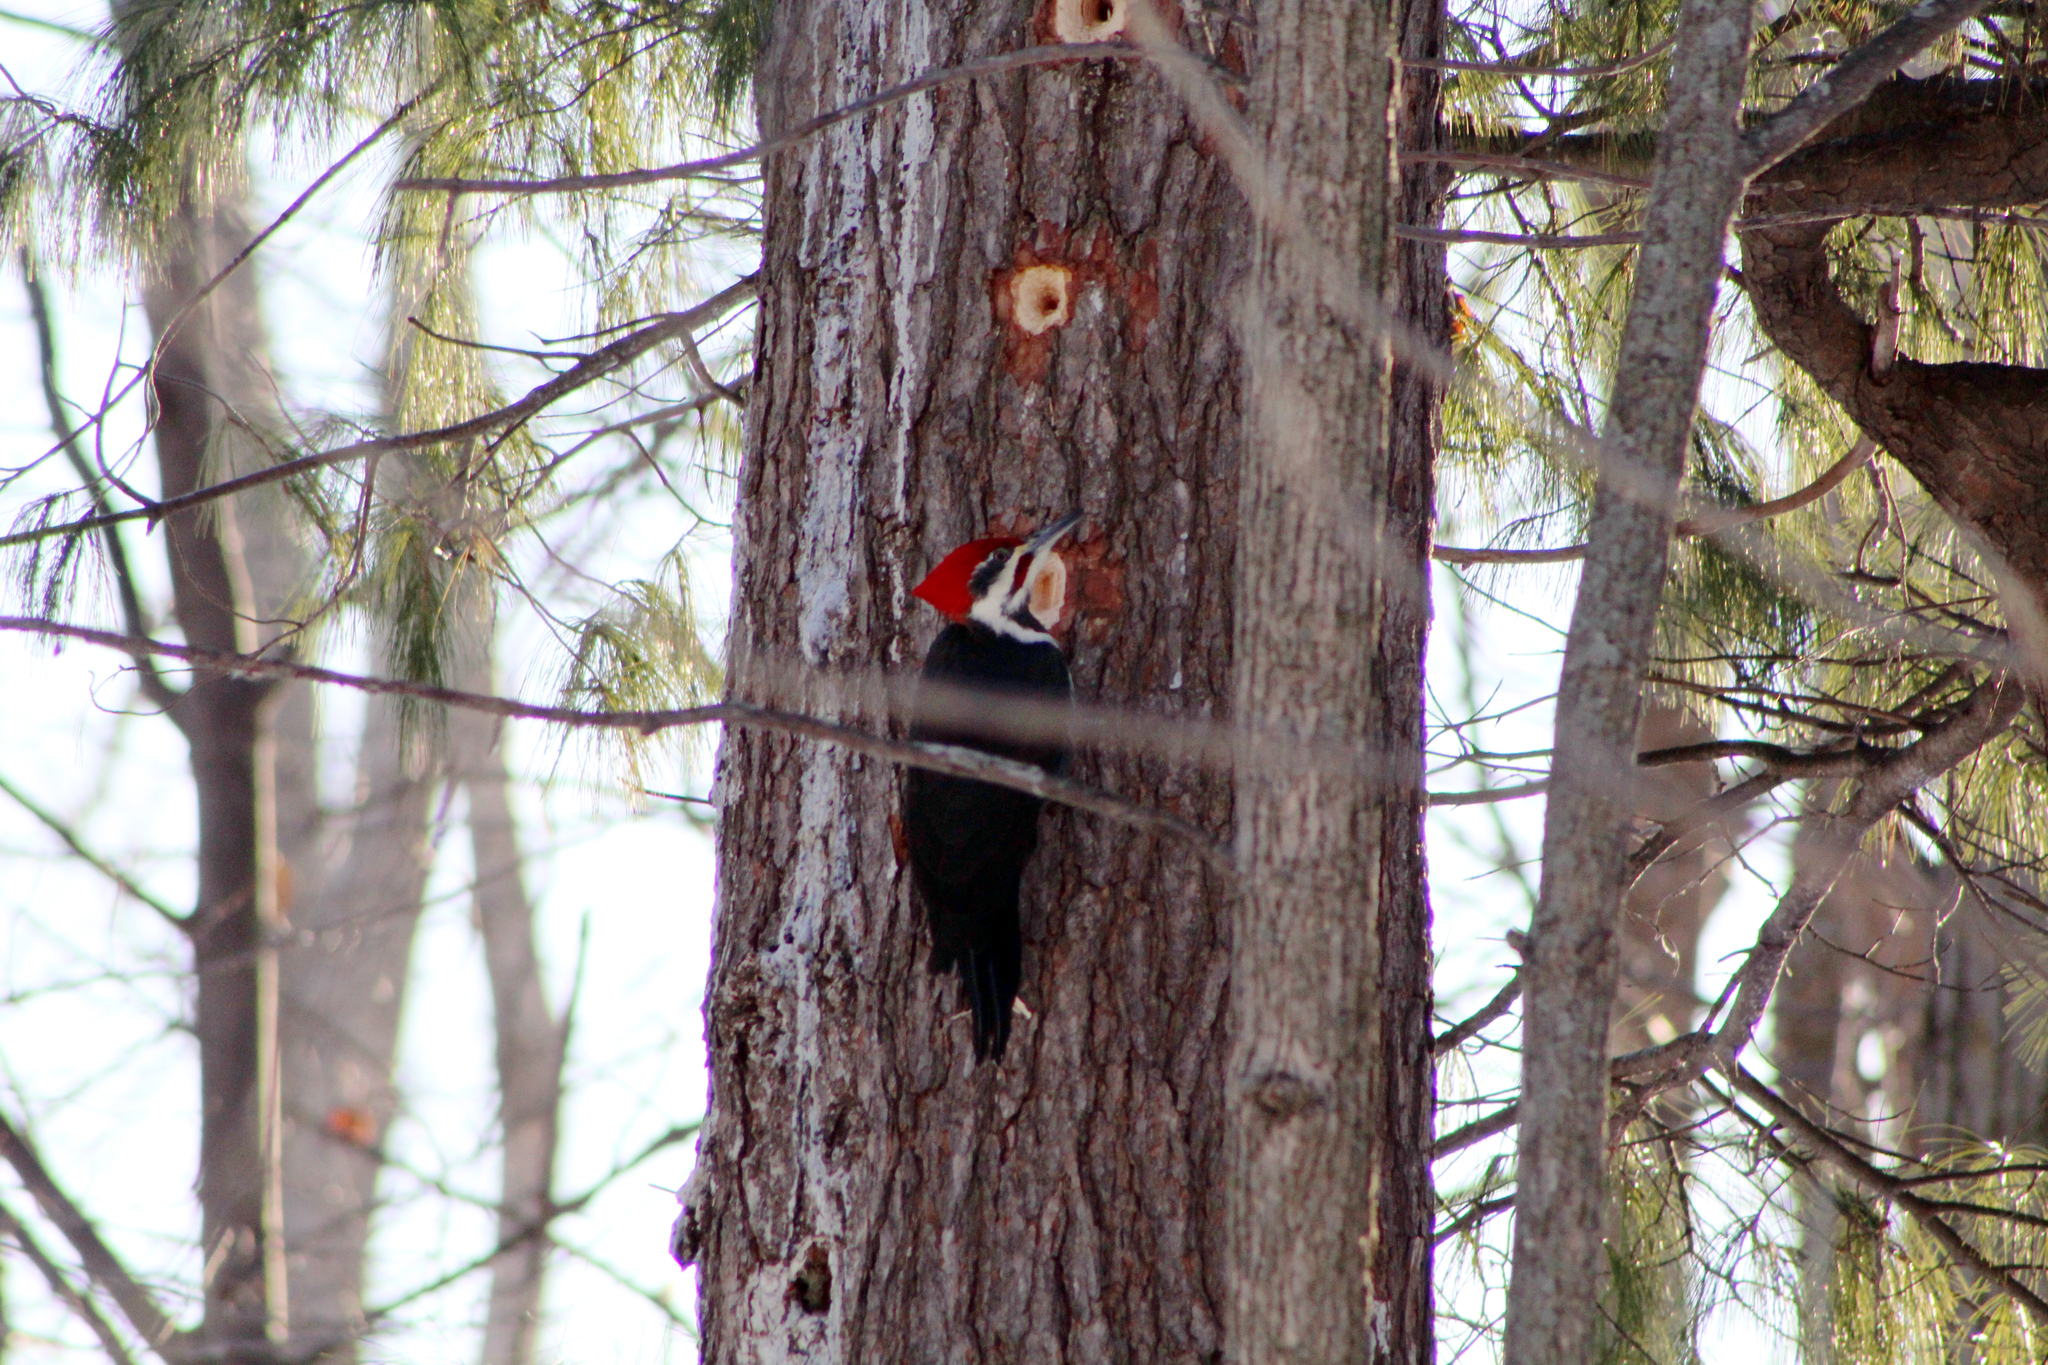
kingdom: Animalia
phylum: Chordata
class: Aves
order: Piciformes
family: Picidae
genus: Dryocopus
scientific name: Dryocopus pileatus
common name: Pileated woodpecker
